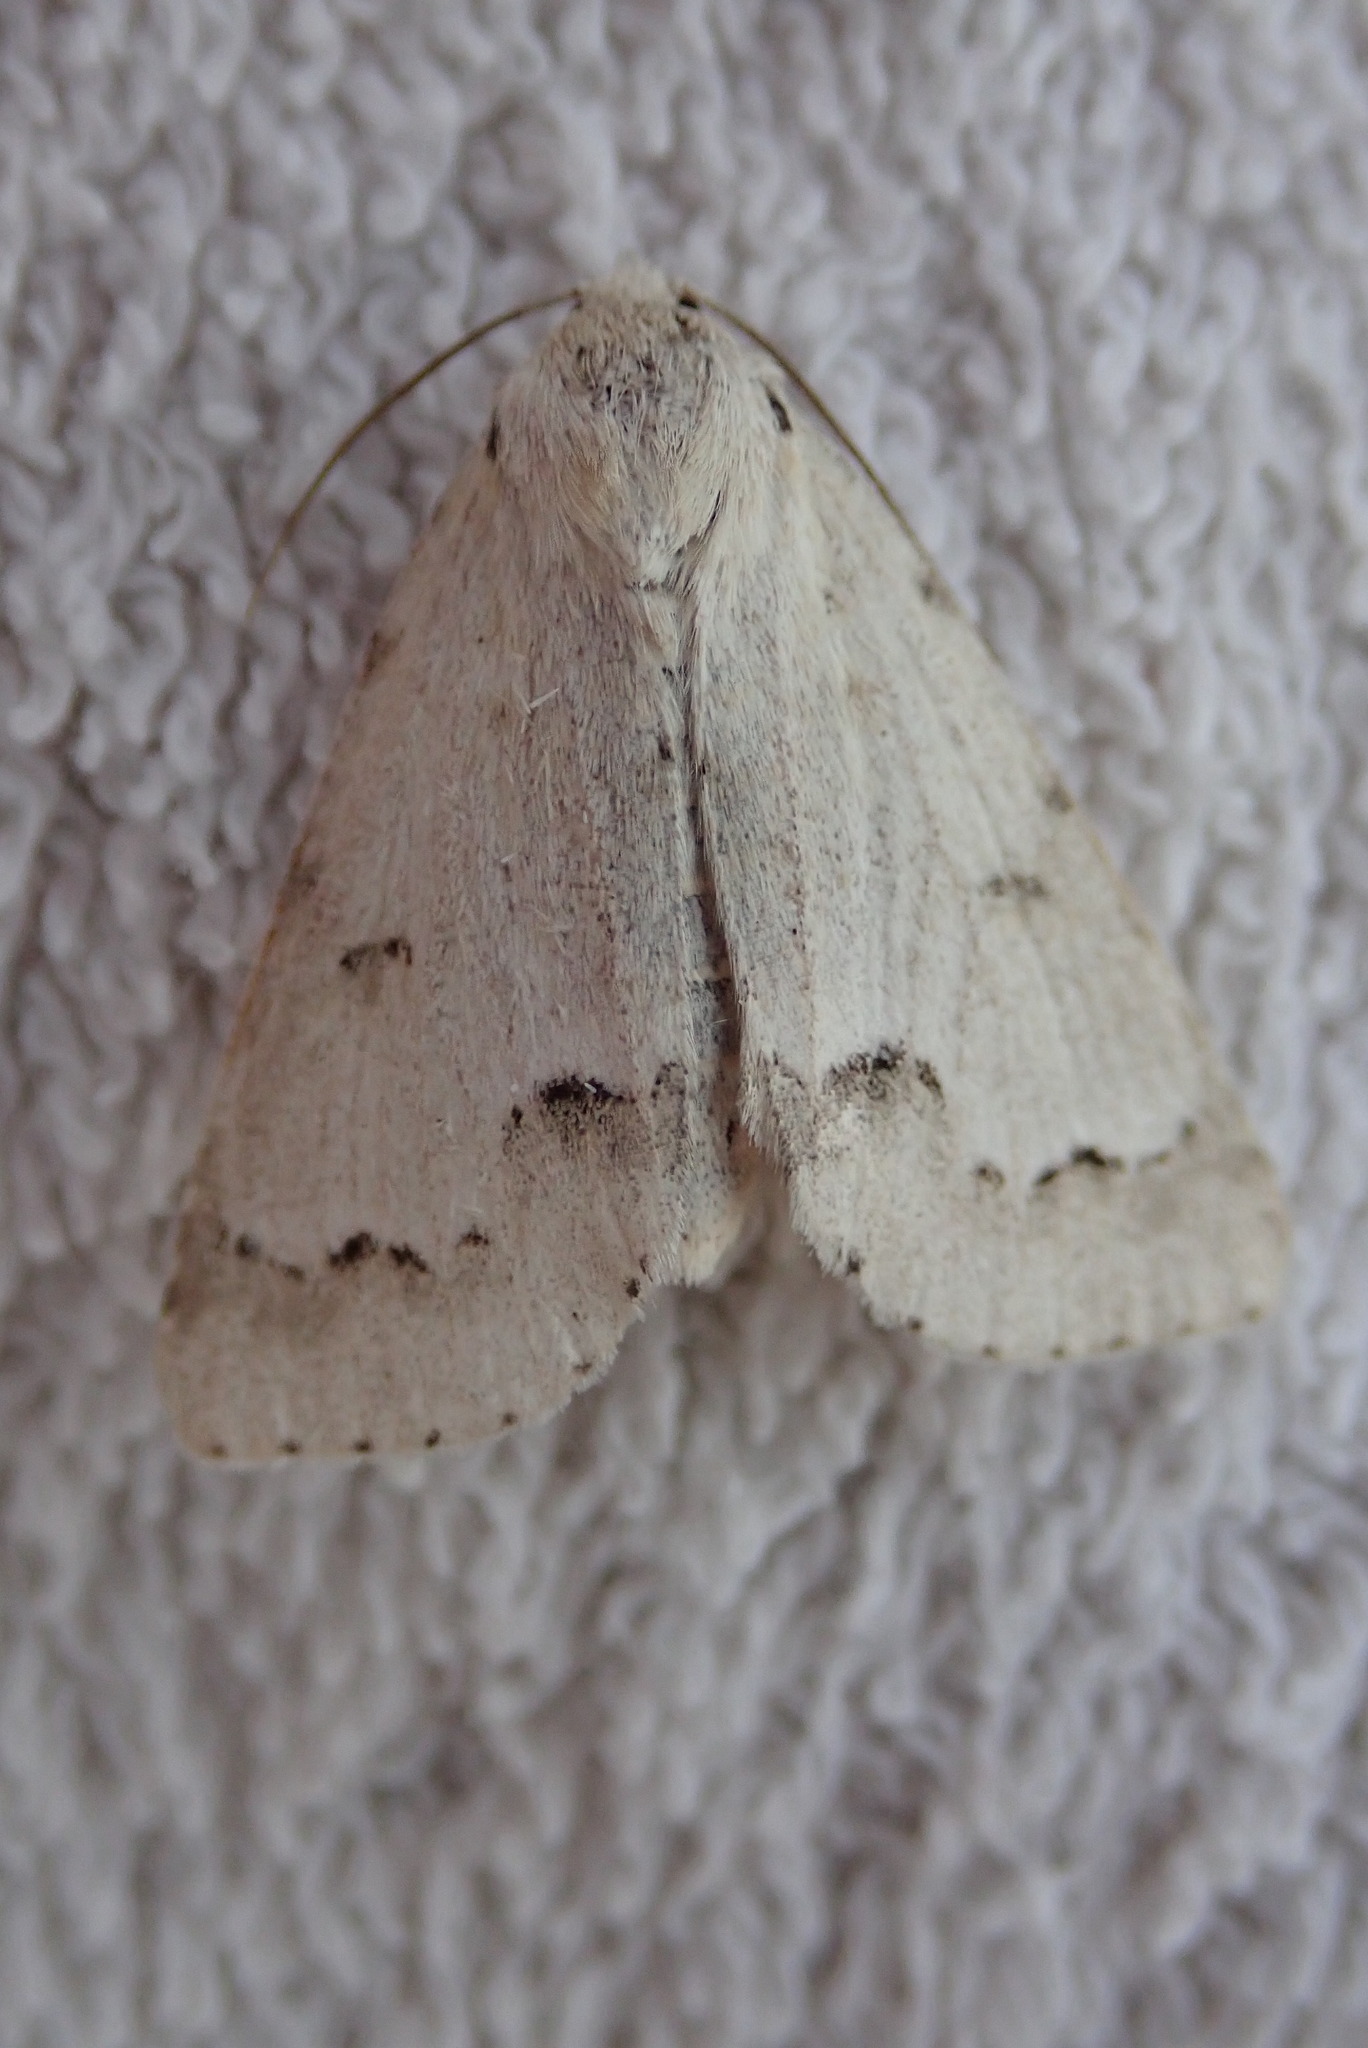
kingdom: Animalia
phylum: Arthropoda
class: Insecta
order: Lepidoptera
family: Noctuidae
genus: Acronicta
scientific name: Acronicta innotata
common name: Unmarked dagger
